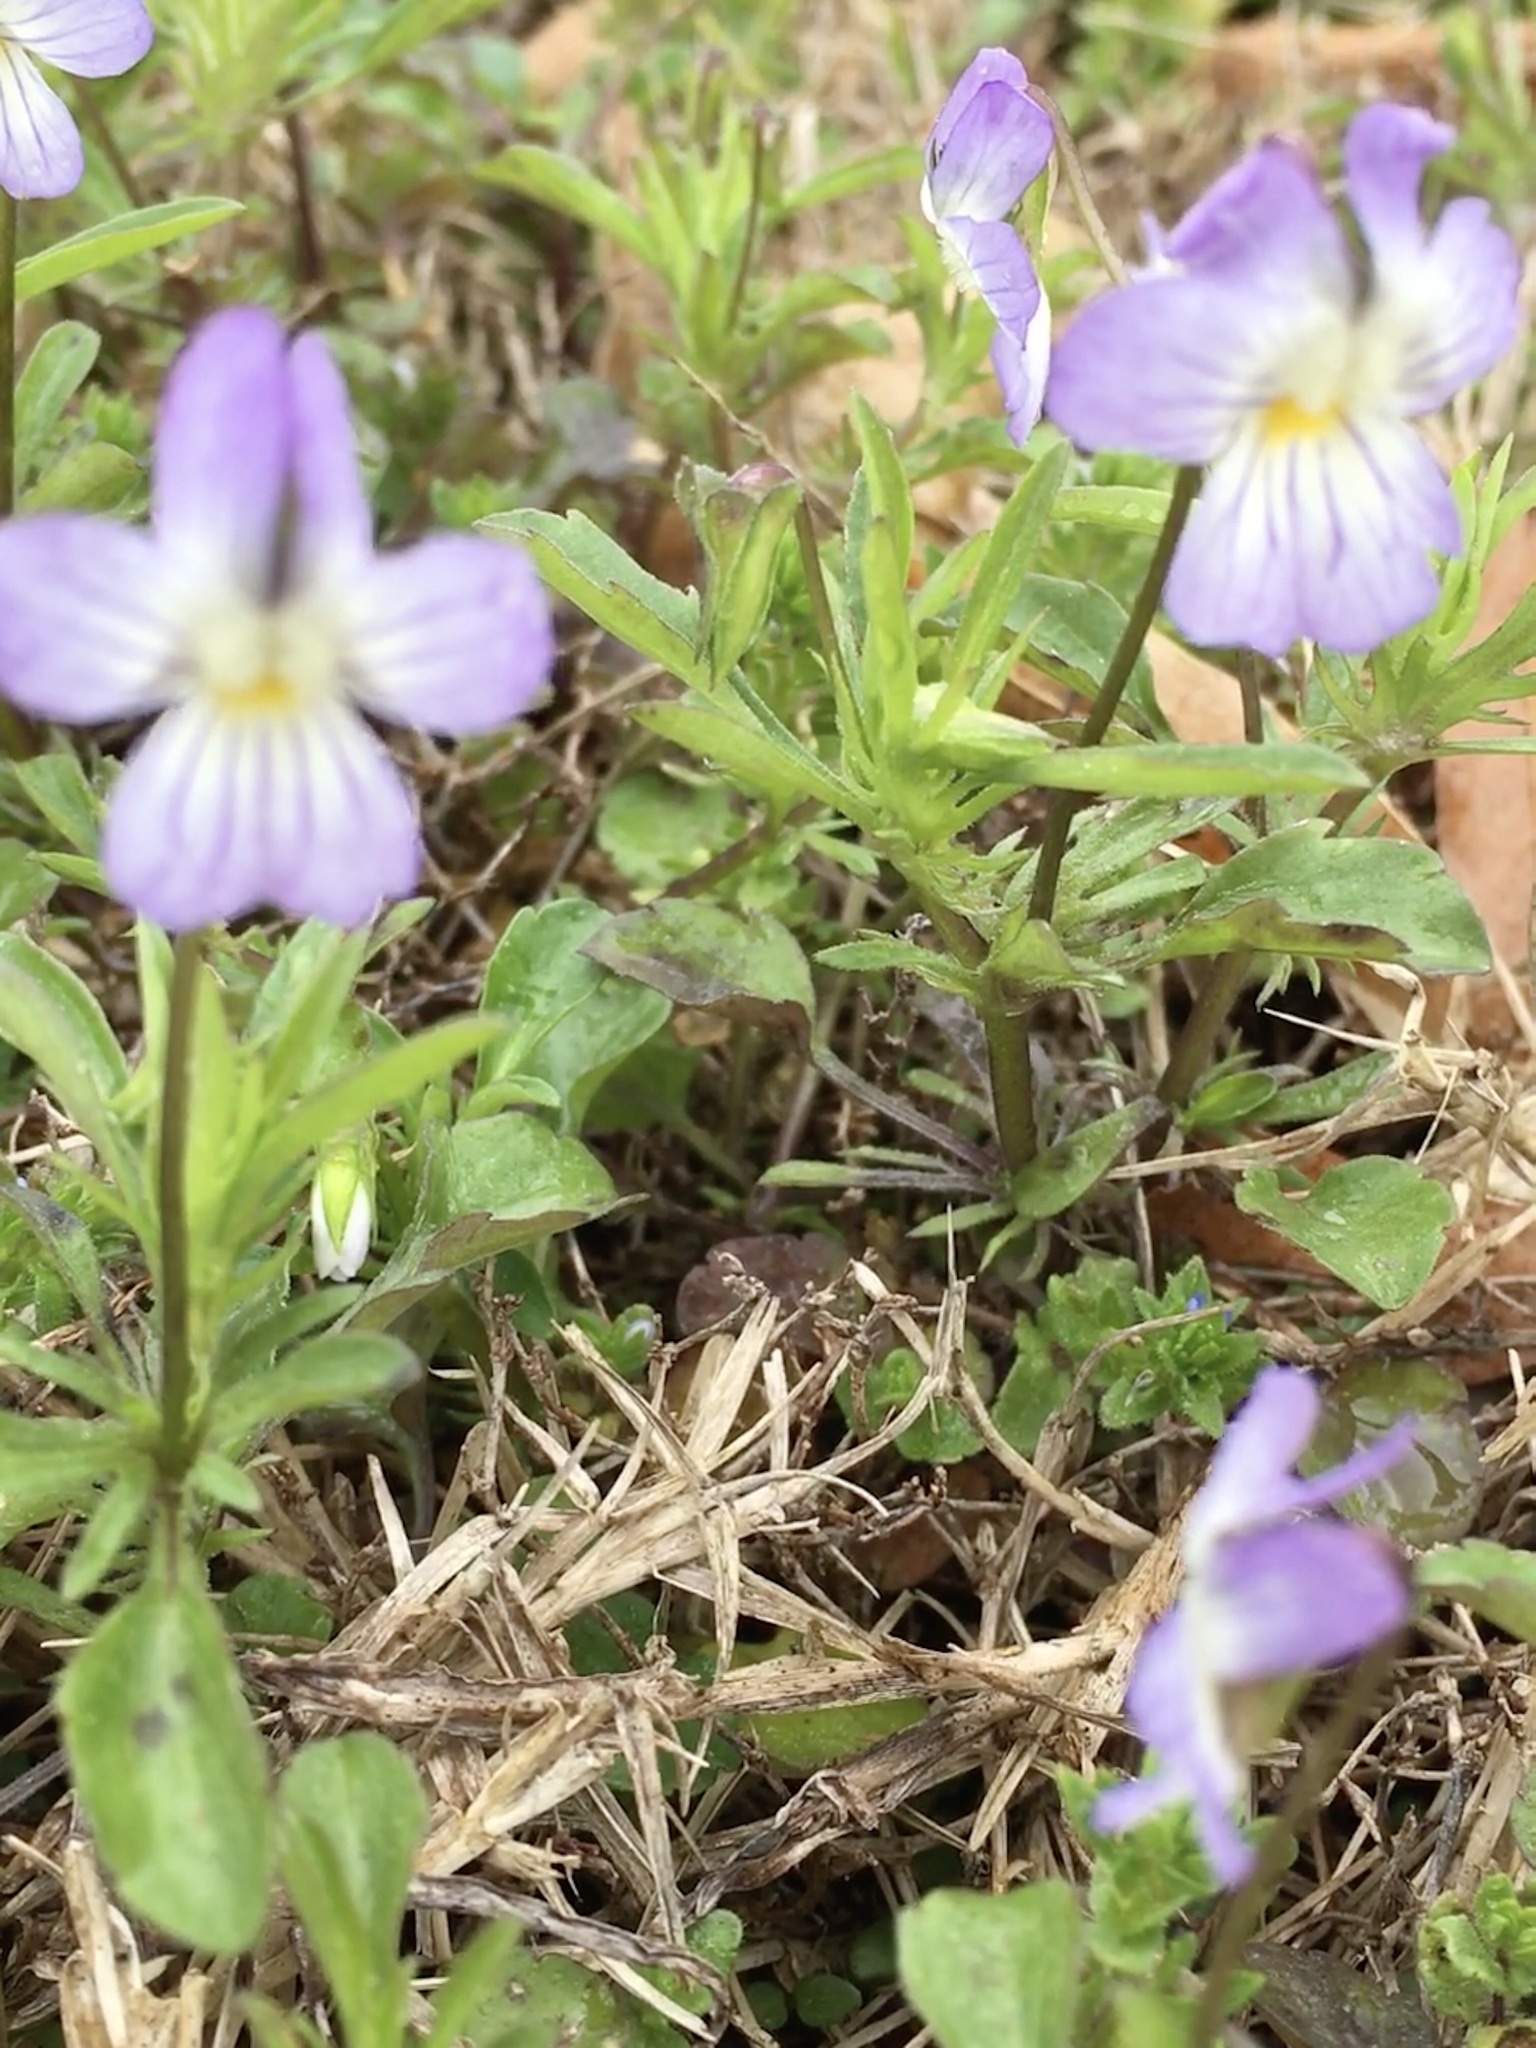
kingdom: Plantae
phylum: Tracheophyta
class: Magnoliopsida
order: Malpighiales
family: Violaceae
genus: Viola
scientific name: Viola rafinesquei
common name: American field pansy
